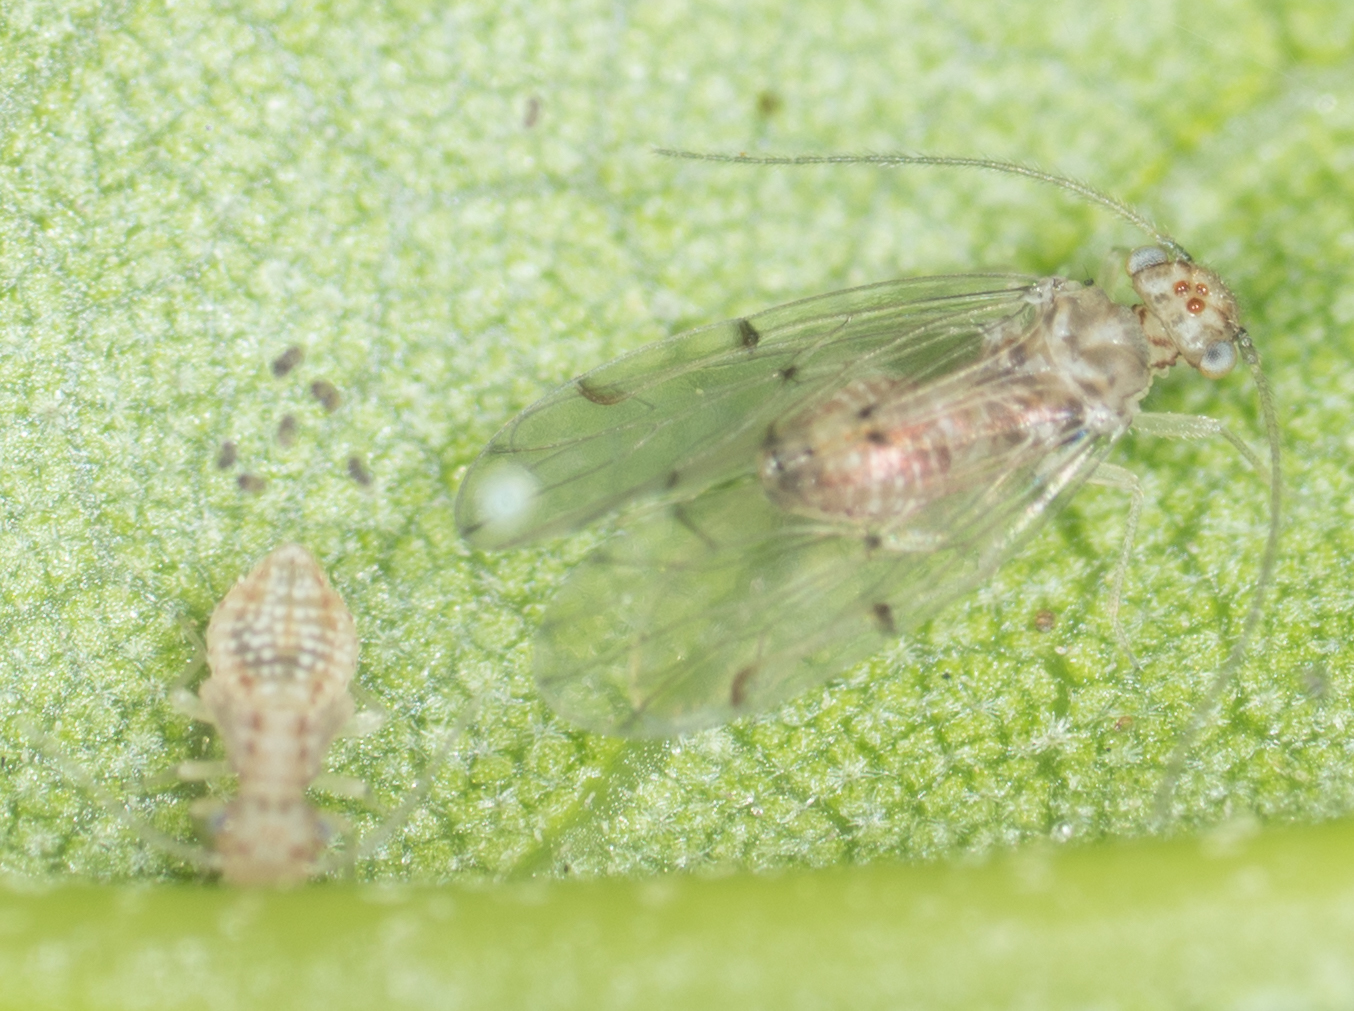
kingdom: Animalia
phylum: Arthropoda
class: Insecta
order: Psocodea
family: Ectopsocidae
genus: Ectopsocus
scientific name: Ectopsocus californicus
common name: Bark lice
